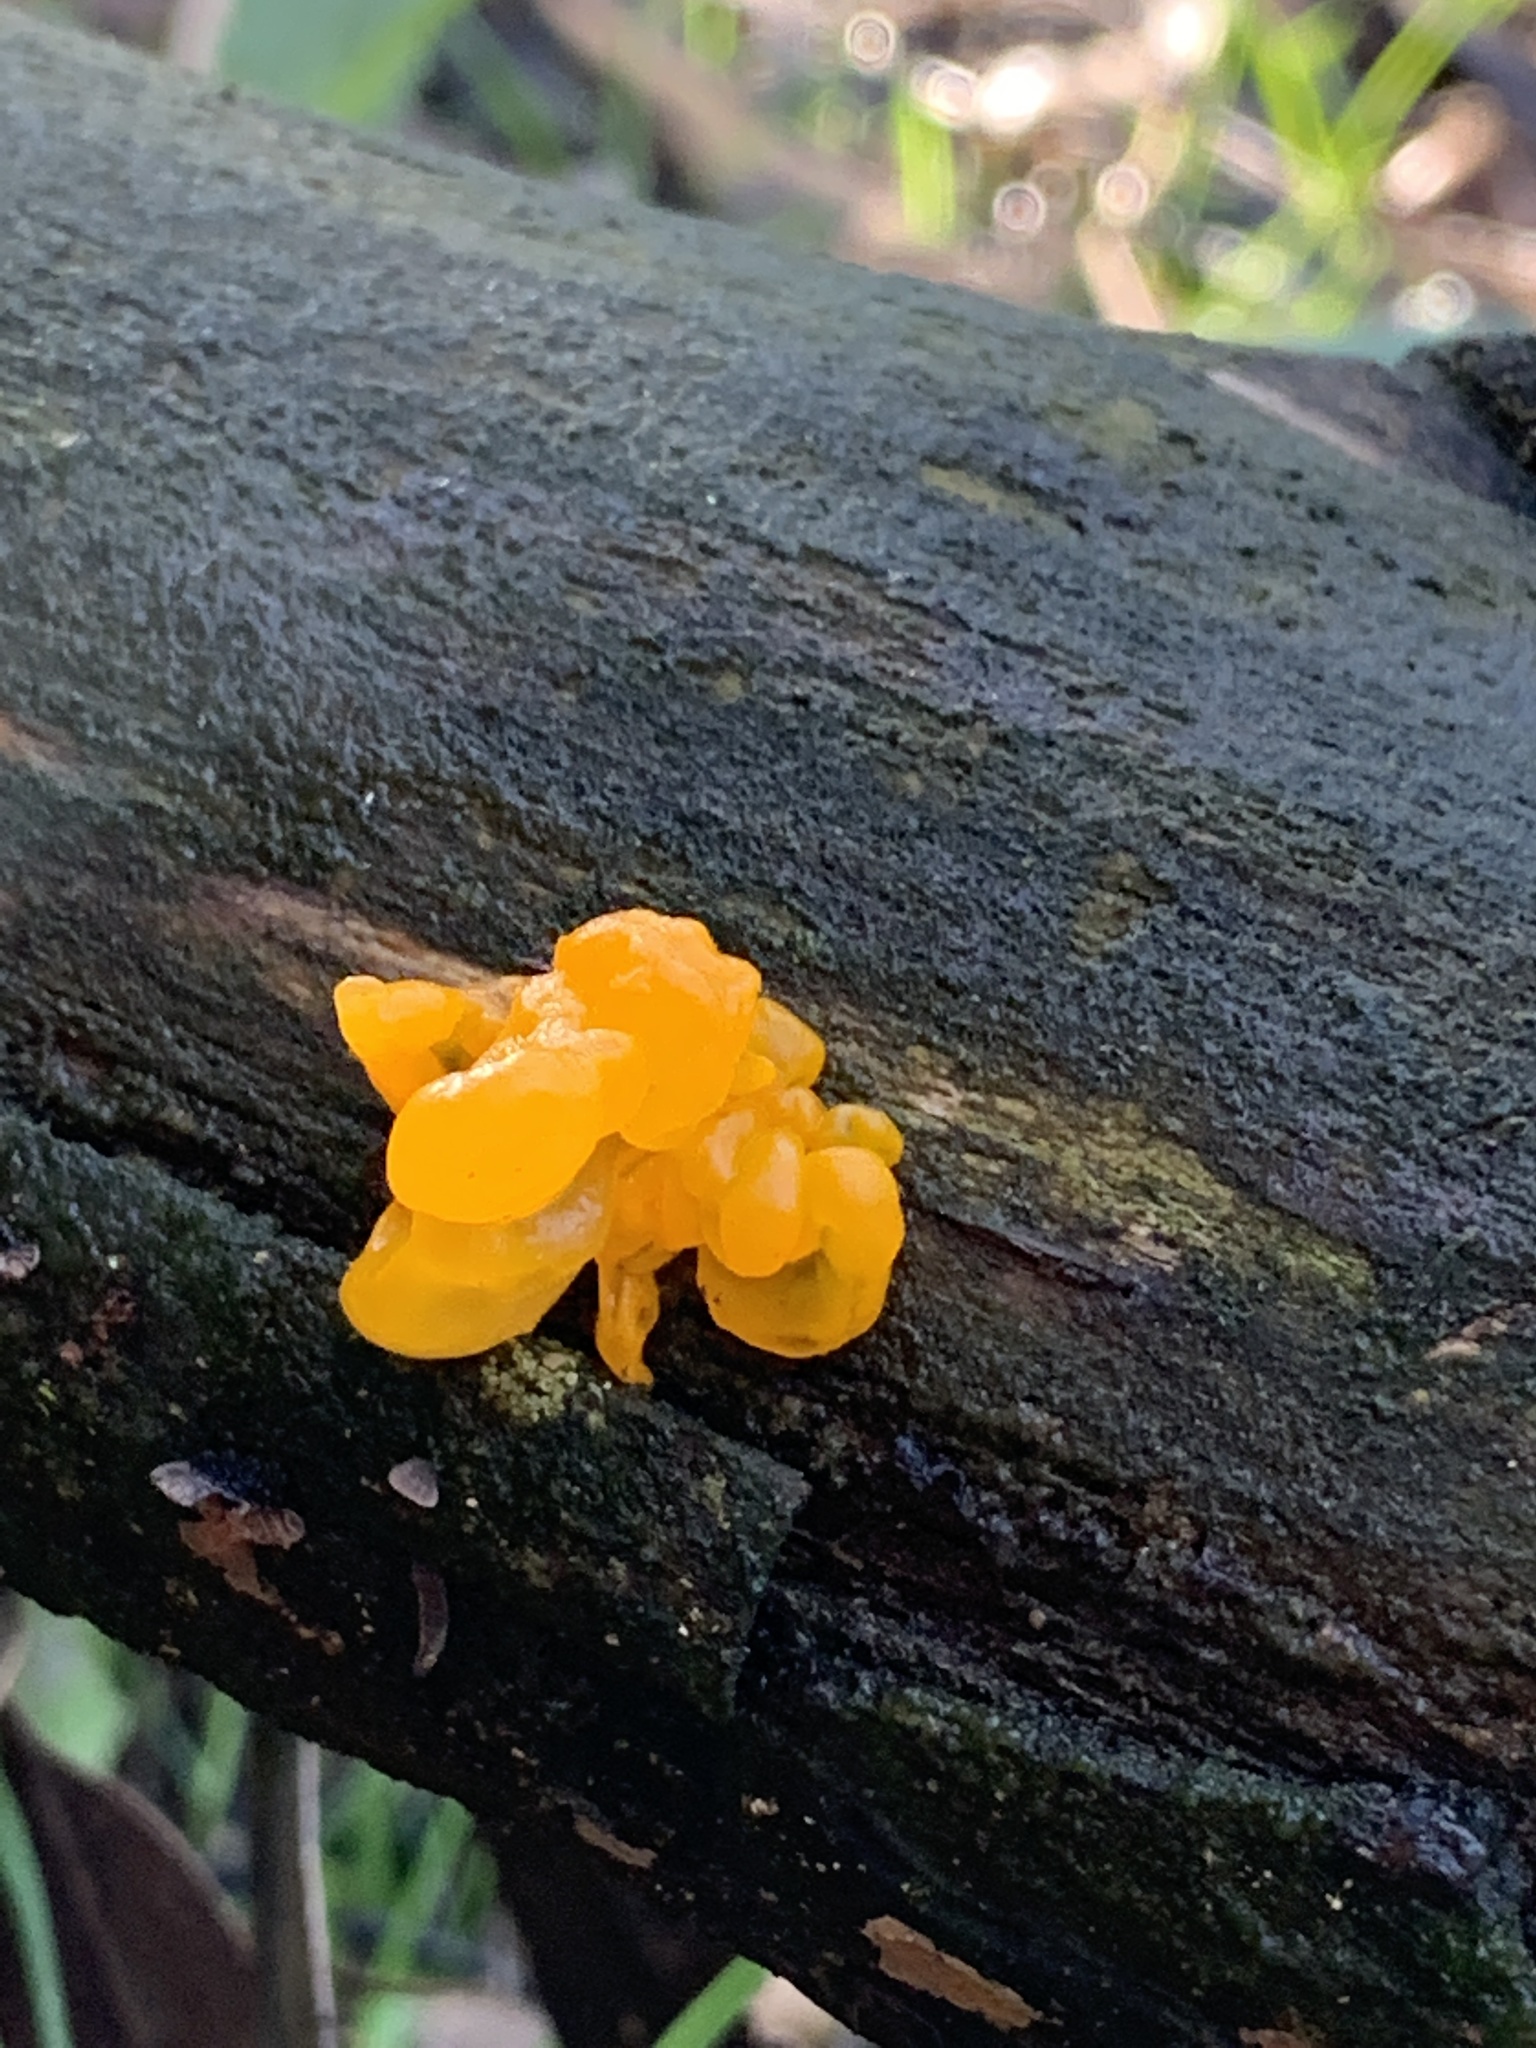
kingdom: Fungi
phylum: Basidiomycota
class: Tremellomycetes
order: Tremellales
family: Tremellaceae
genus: Tremella
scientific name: Tremella mesenterica
